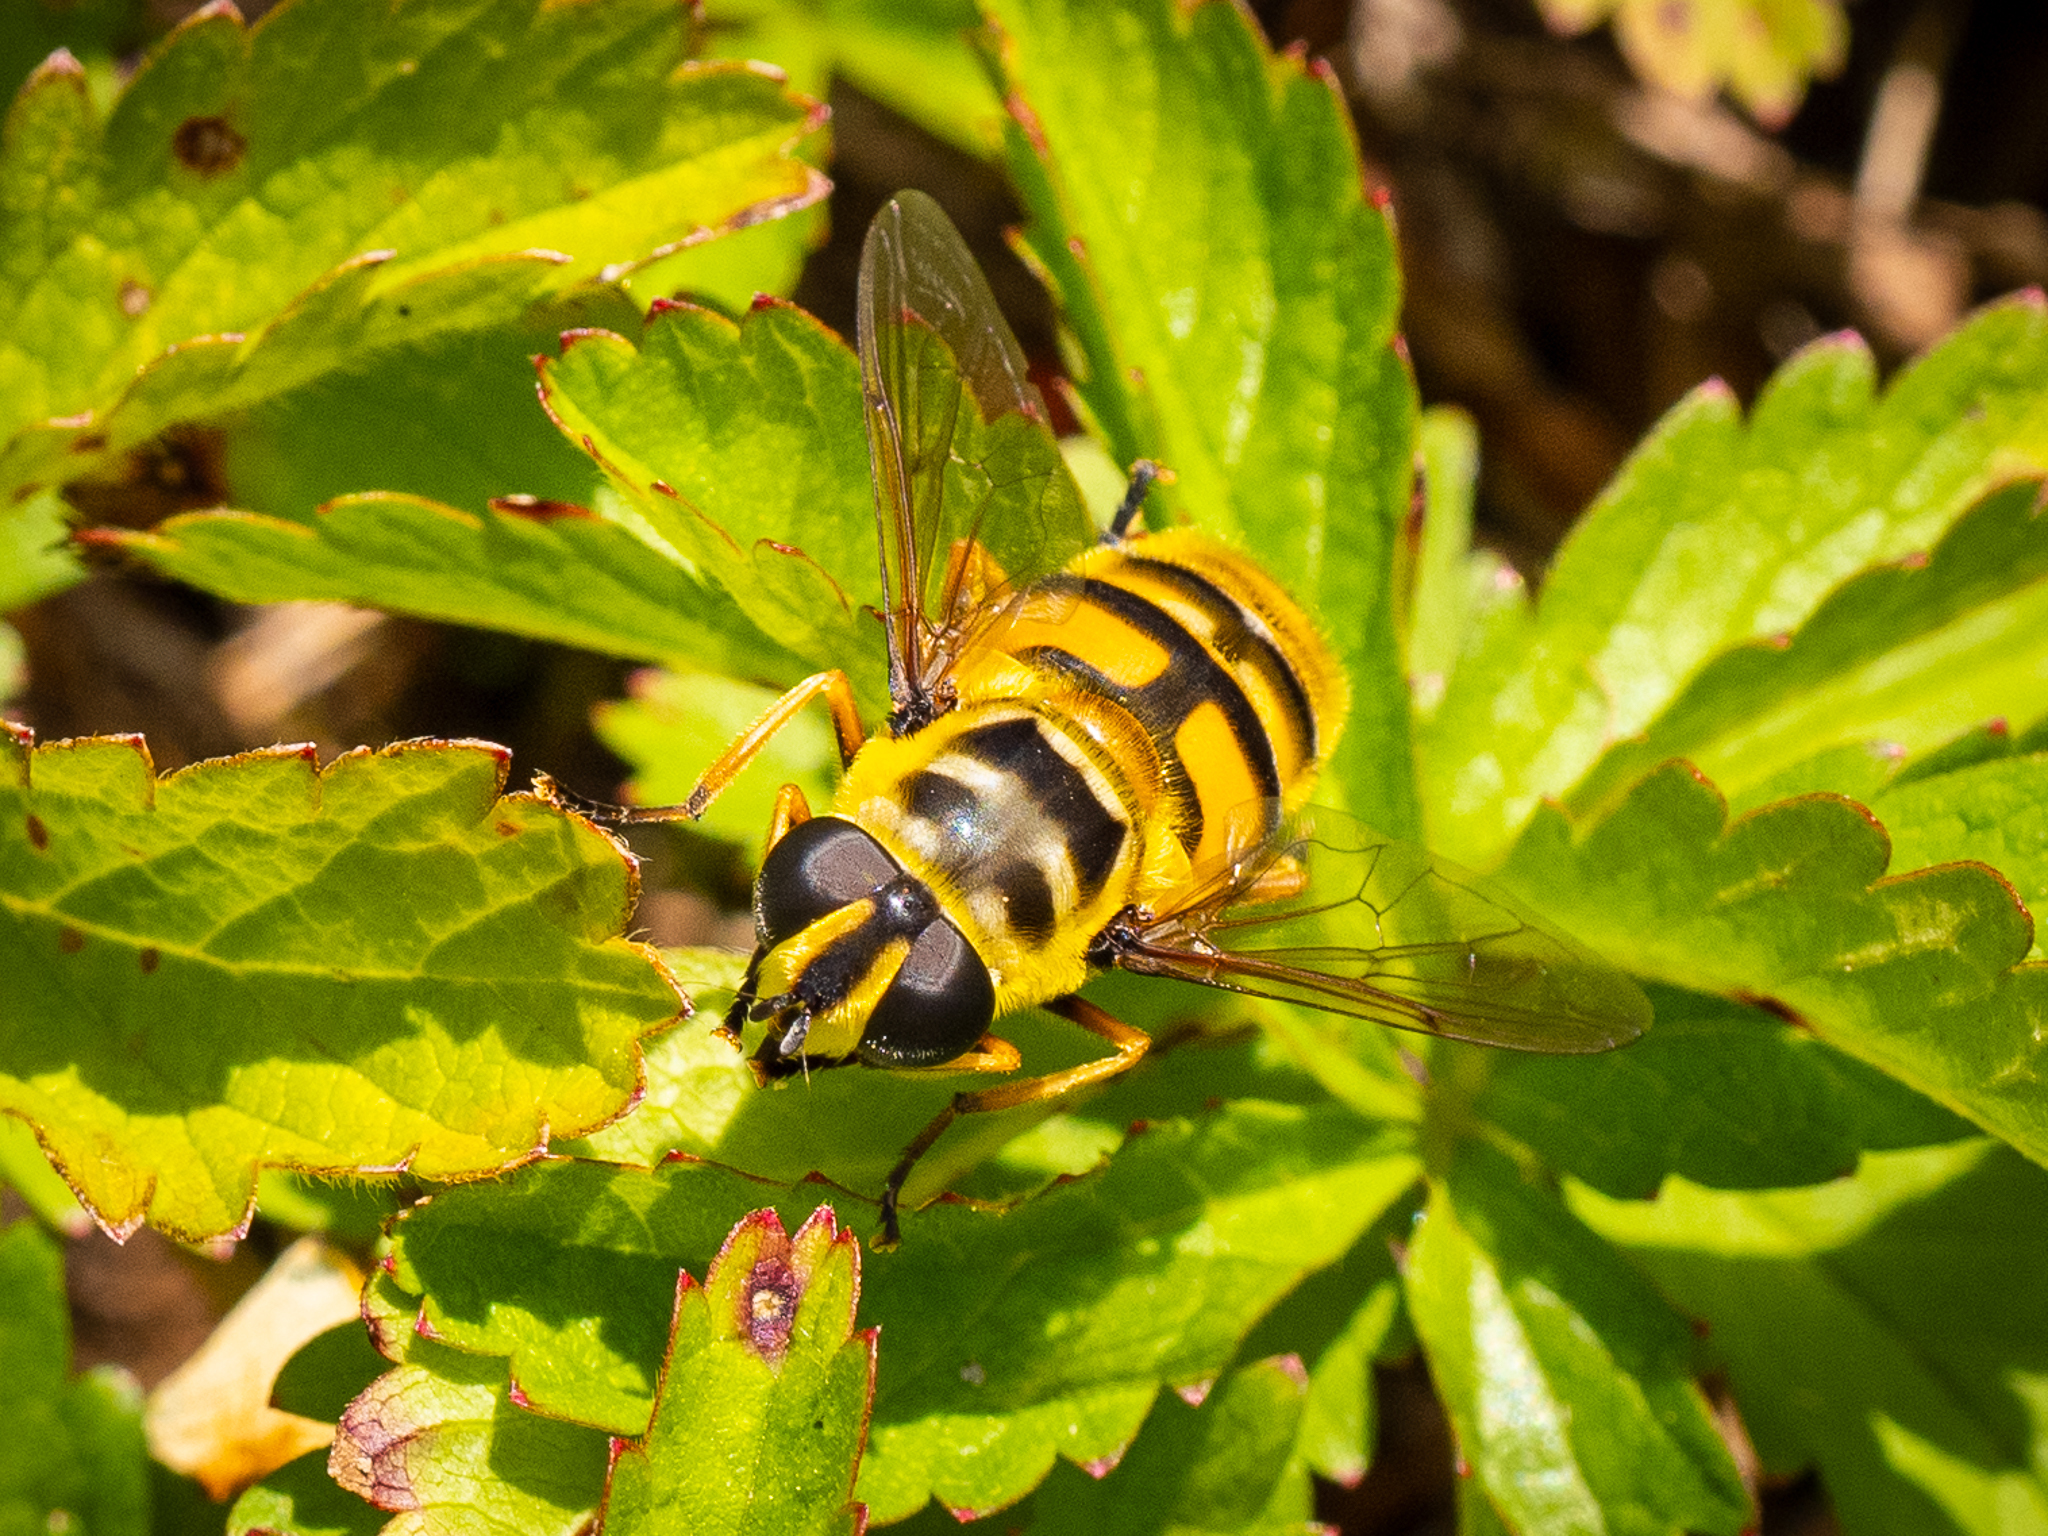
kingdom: Animalia
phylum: Arthropoda
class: Insecta
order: Diptera
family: Syrphidae
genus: Myathropa
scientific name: Myathropa florea
